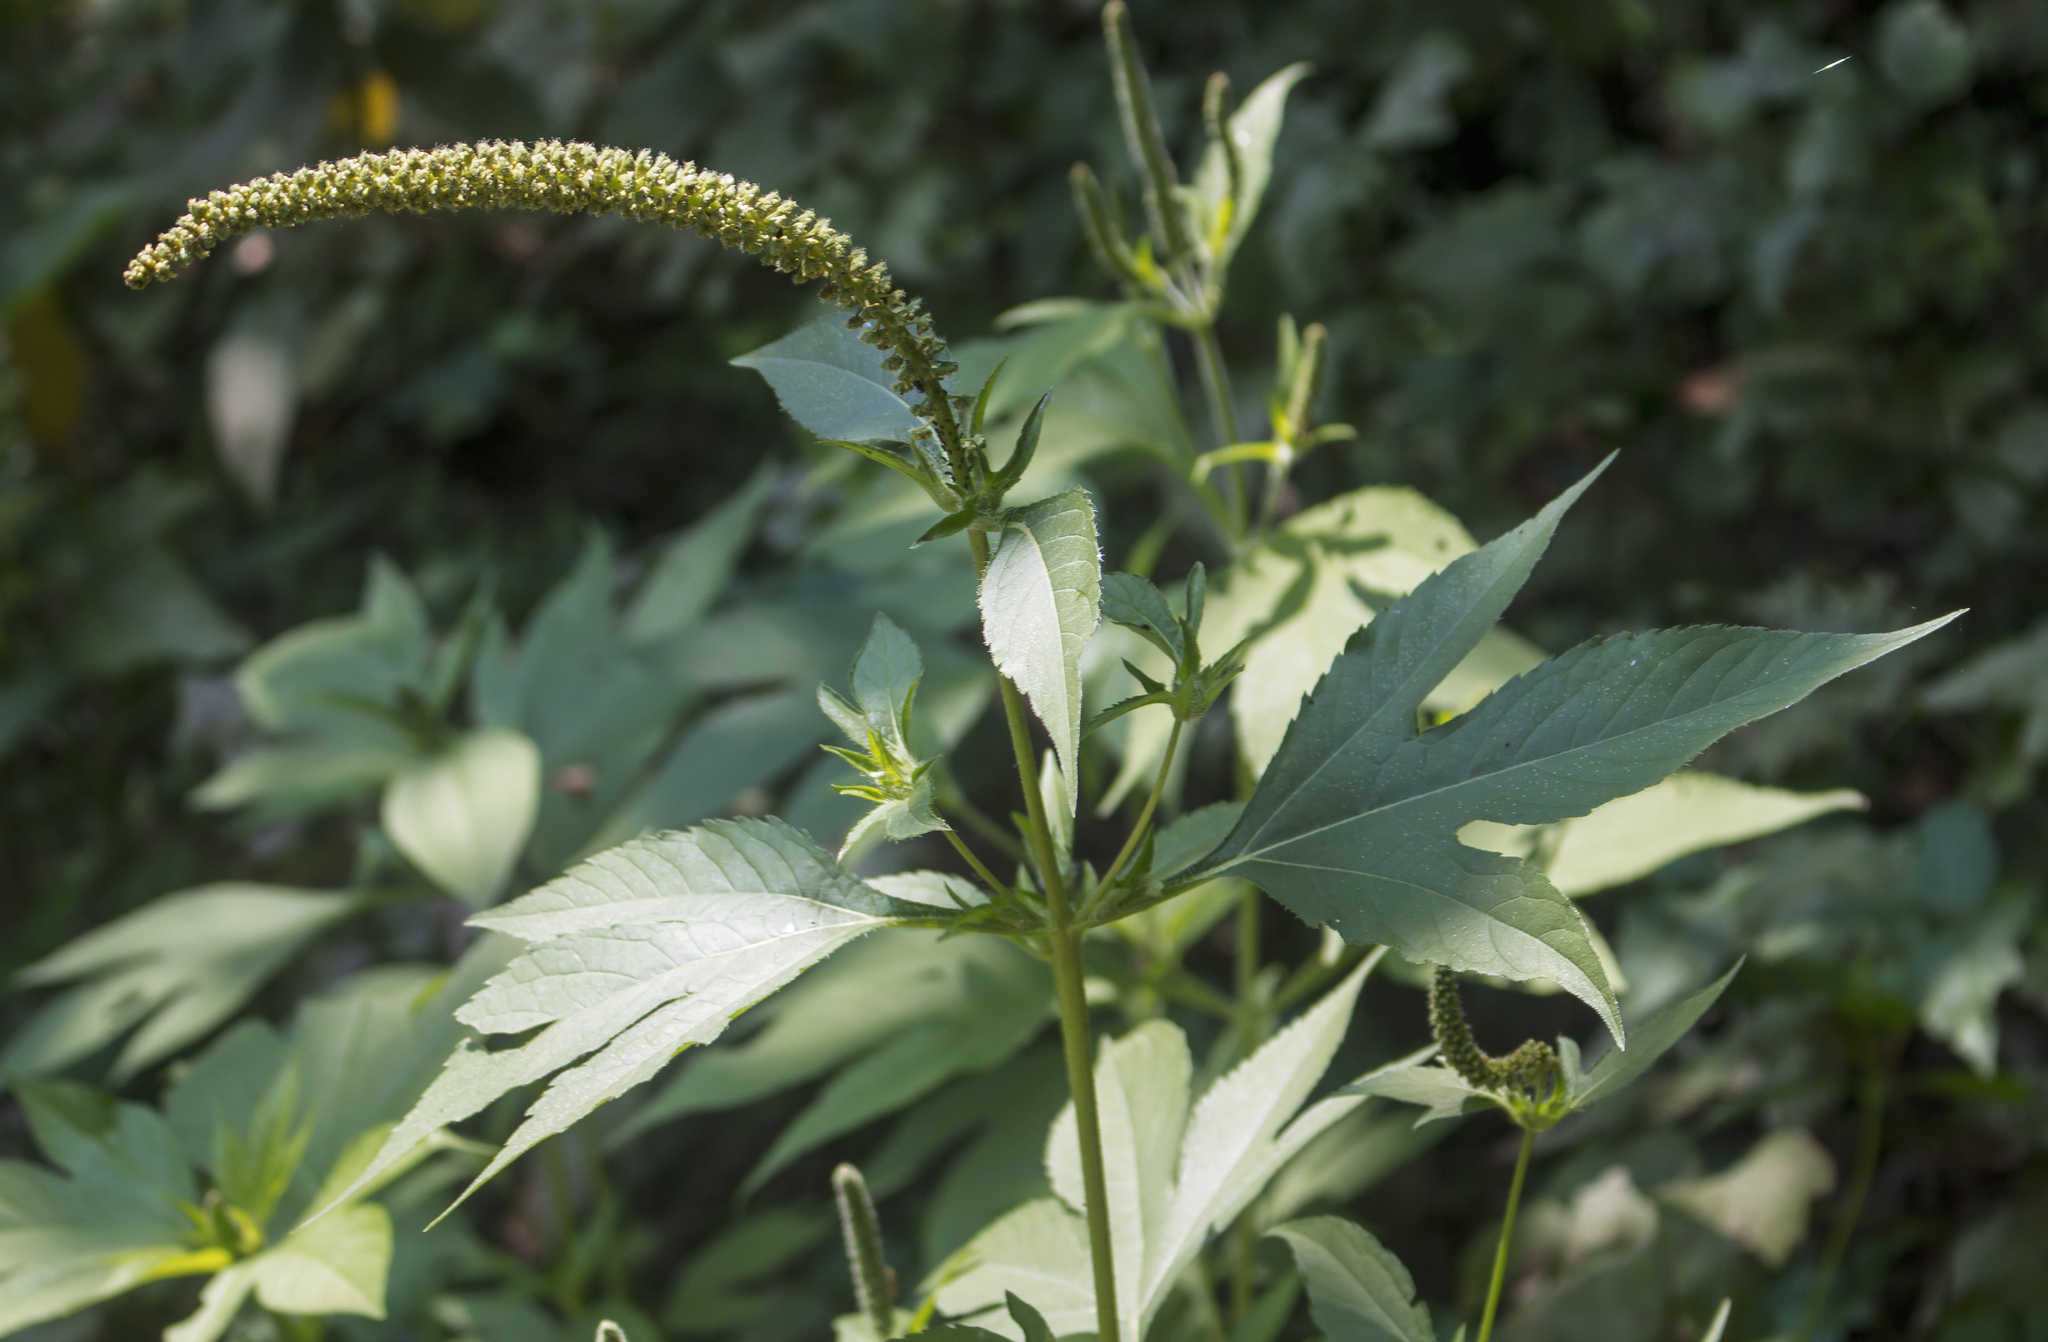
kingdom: Plantae
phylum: Tracheophyta
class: Magnoliopsida
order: Asterales
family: Asteraceae
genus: Ambrosia
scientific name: Ambrosia trifida
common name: Giant ragweed
